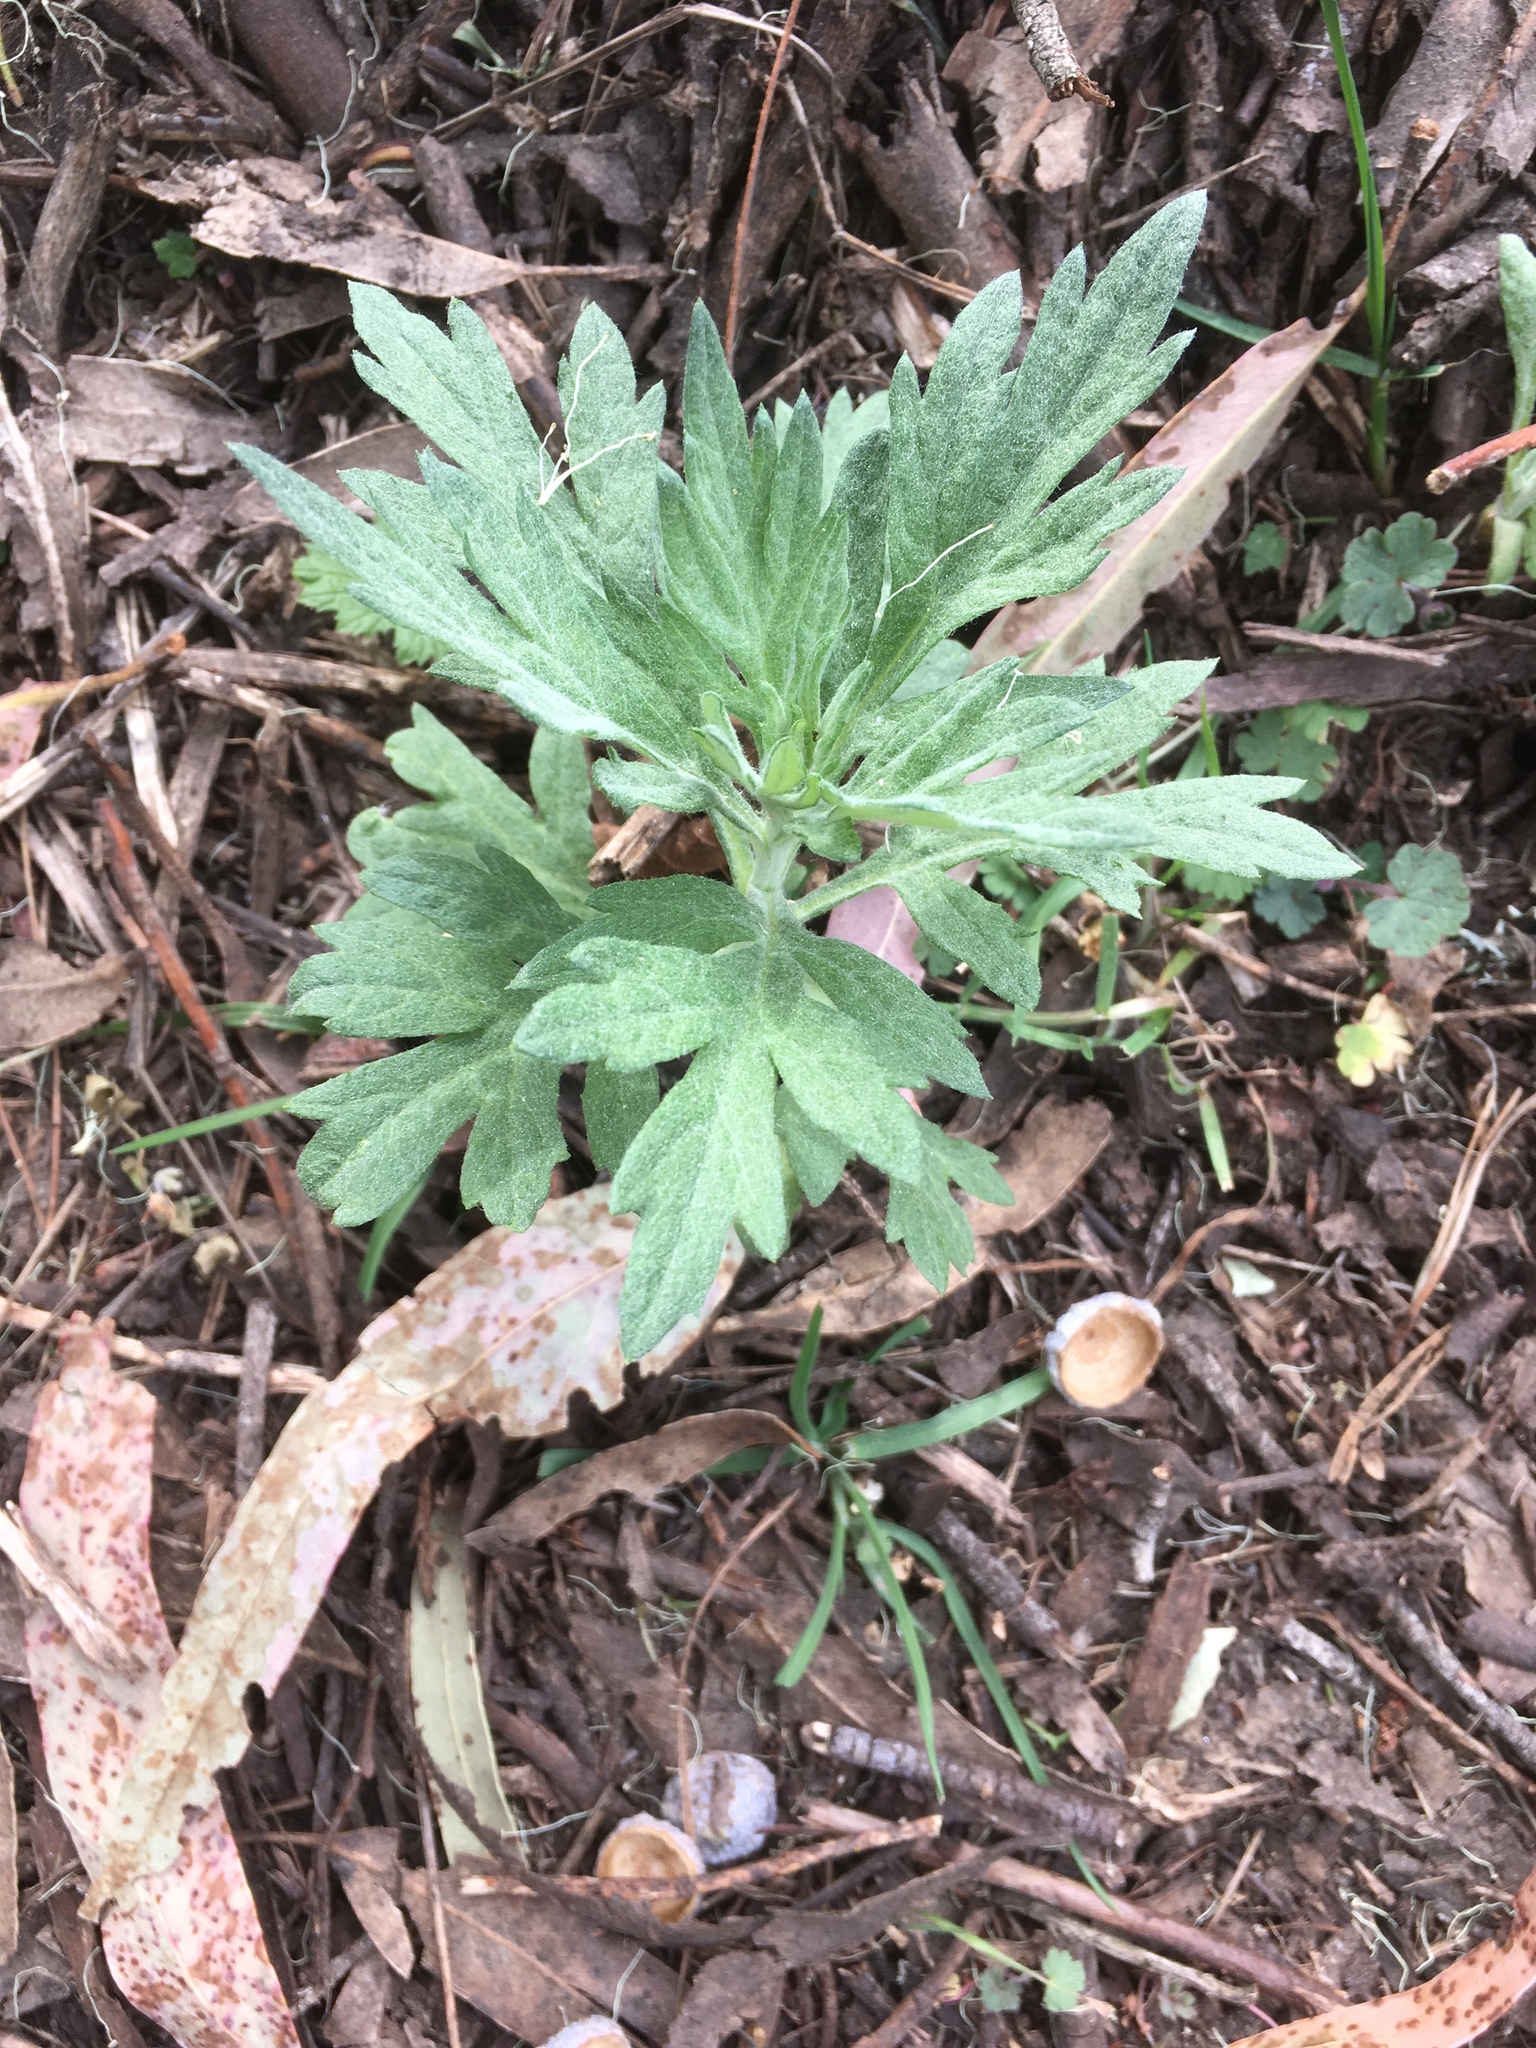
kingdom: Plantae
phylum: Tracheophyta
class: Magnoliopsida
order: Asterales
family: Asteraceae
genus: Artemisia
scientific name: Artemisia douglasiana
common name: Northwest mugwort
